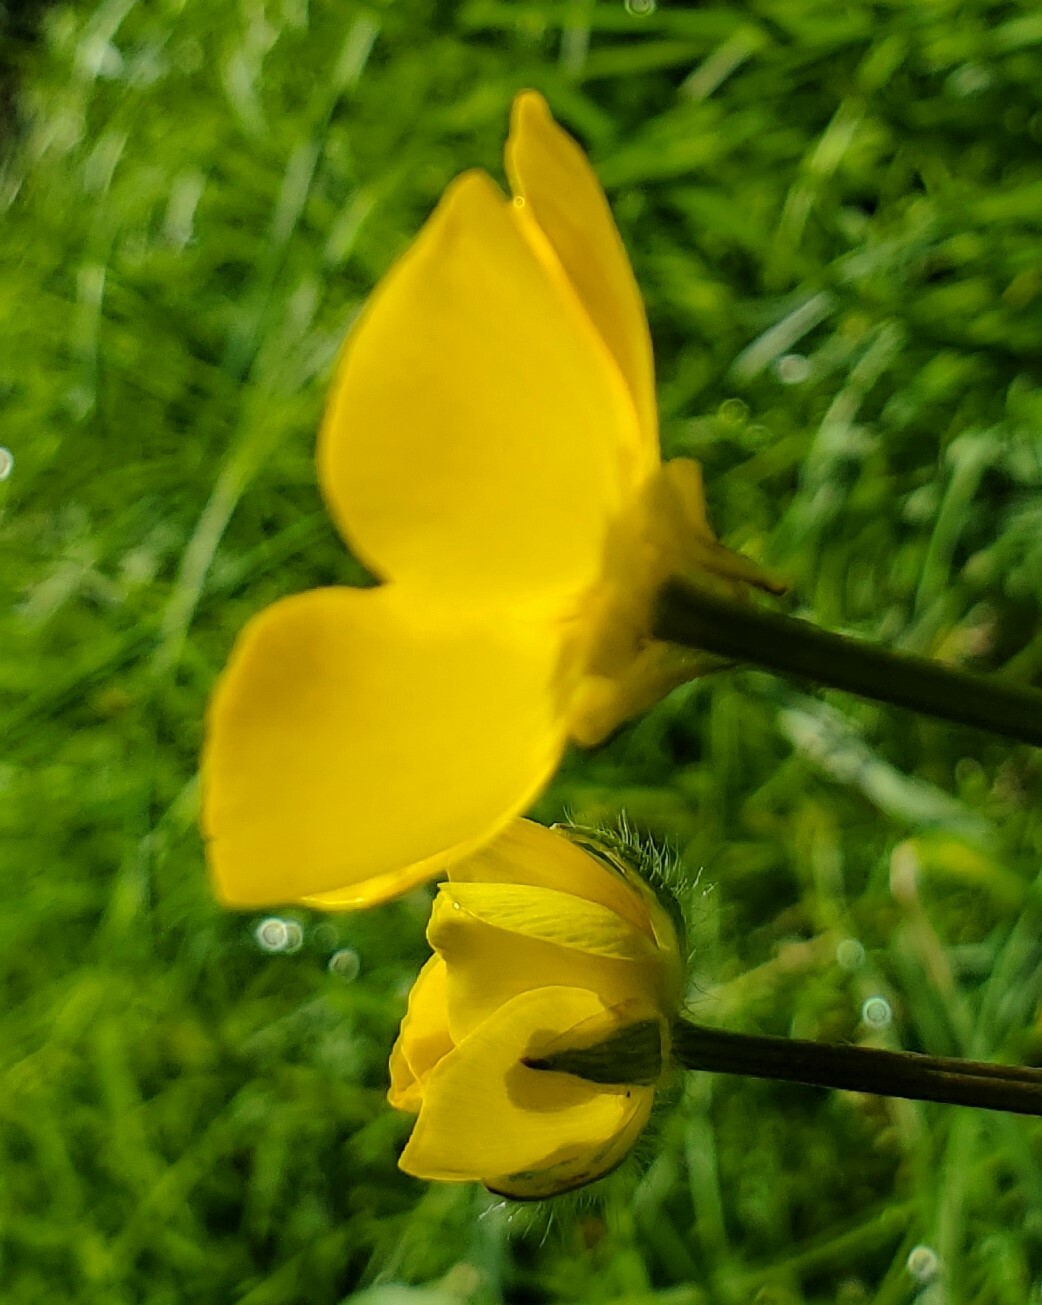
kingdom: Plantae
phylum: Tracheophyta
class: Magnoliopsida
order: Ranunculales
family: Ranunculaceae
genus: Ranunculus
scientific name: Ranunculus bulbosus
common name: Bulbous buttercup
